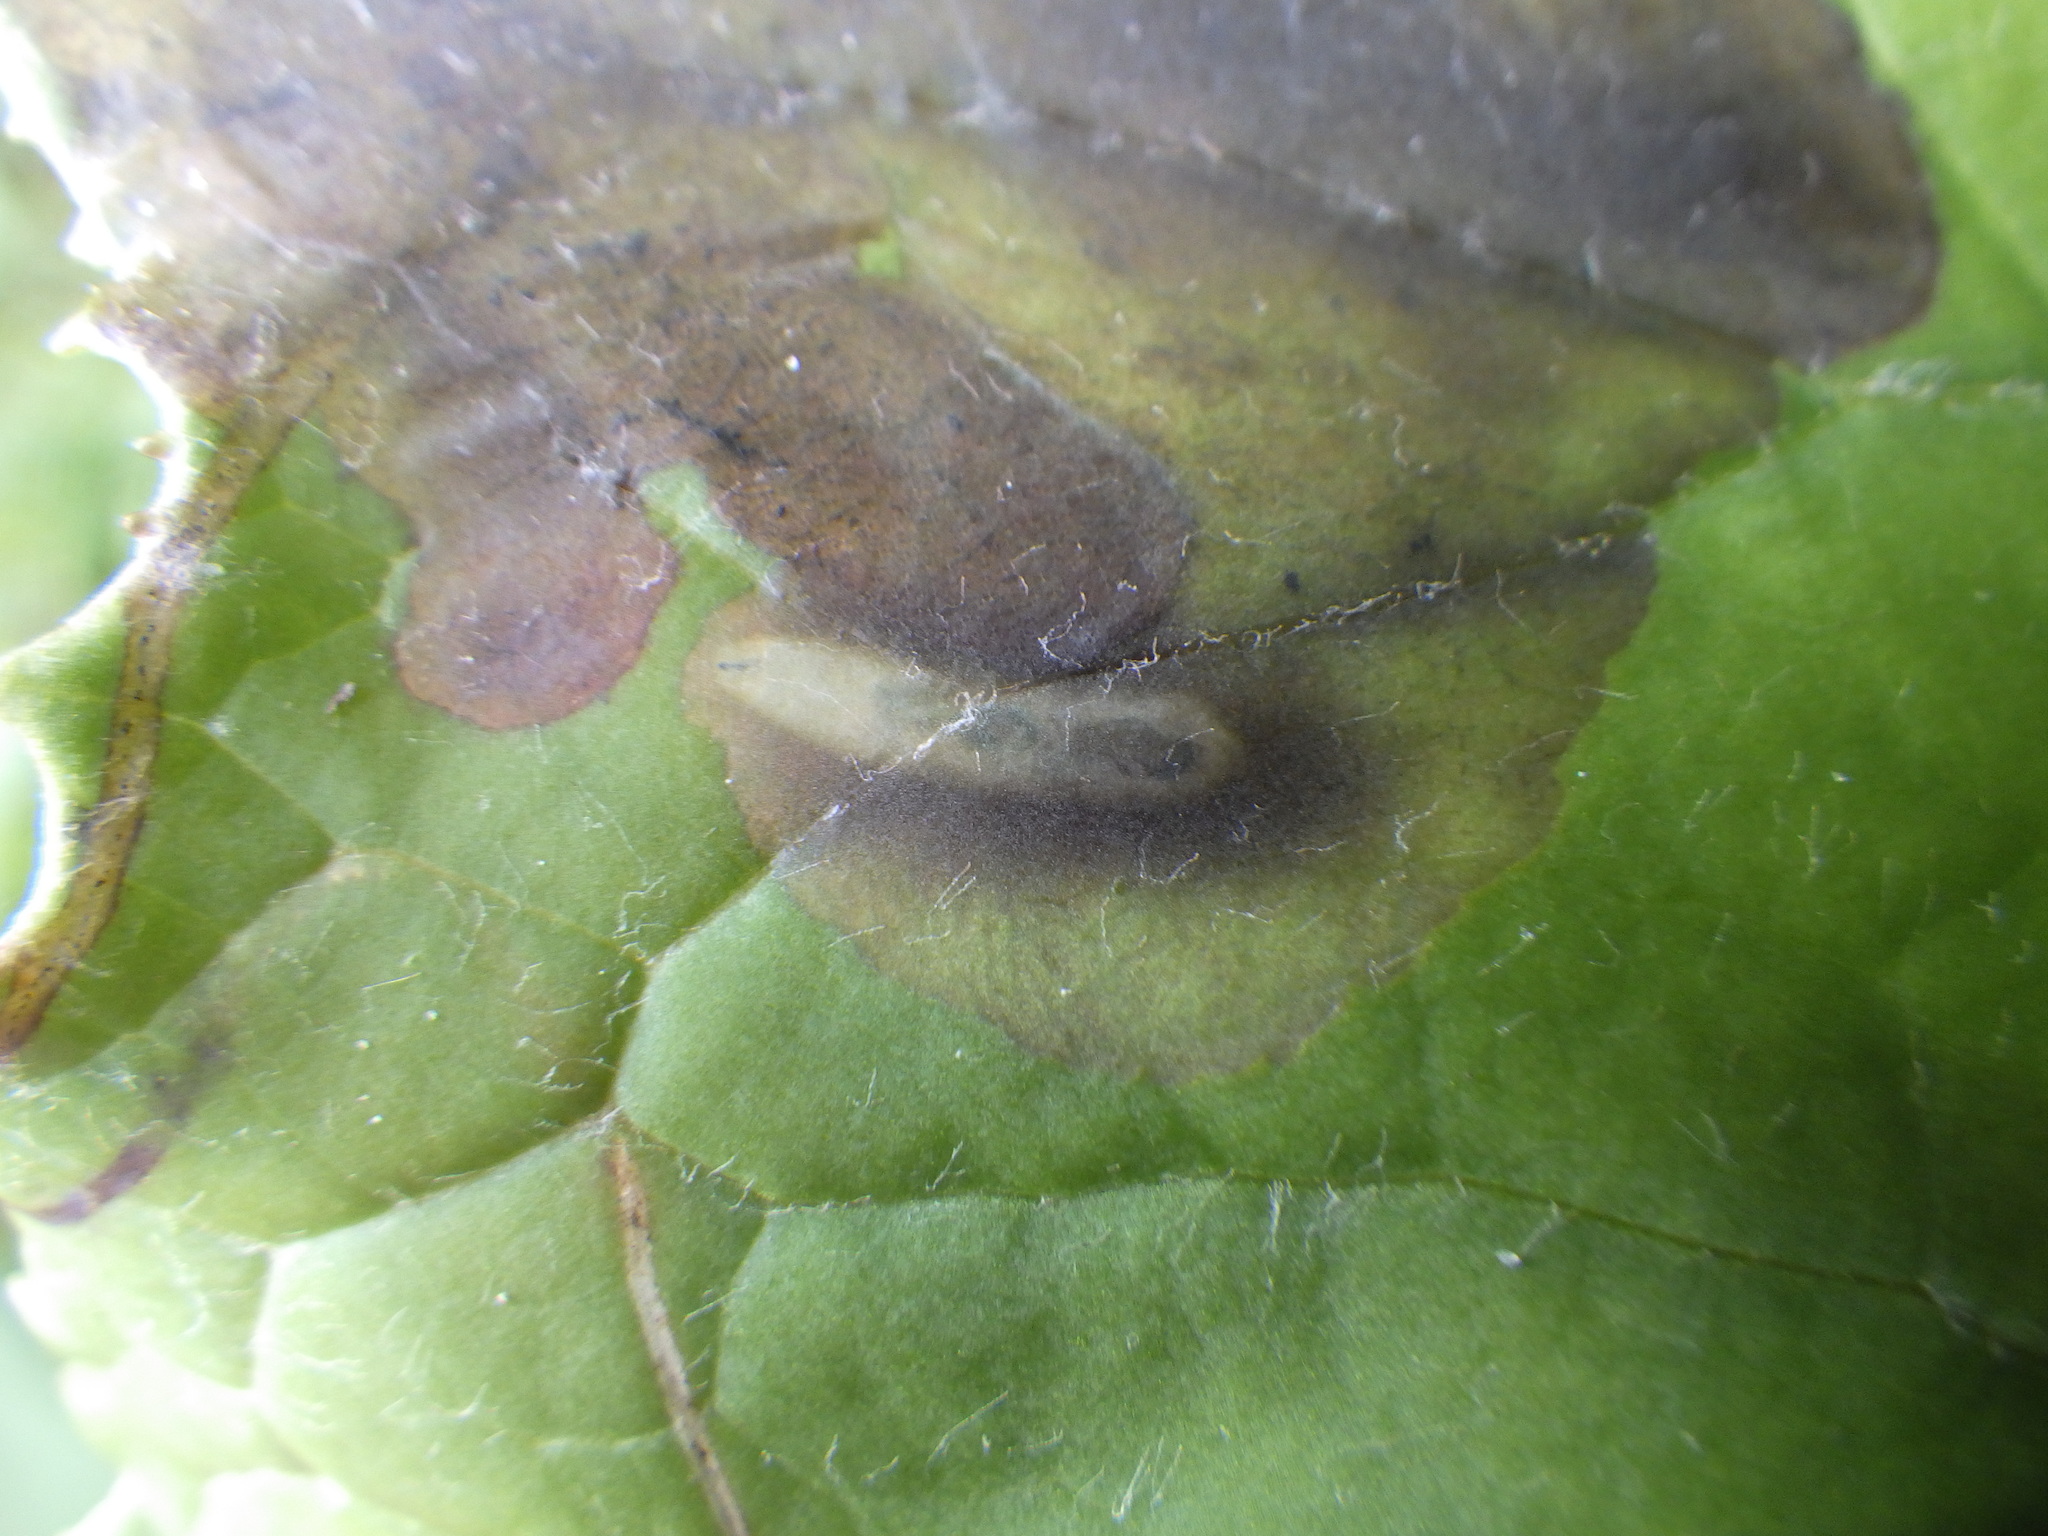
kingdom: Animalia
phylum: Arthropoda
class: Insecta
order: Diptera
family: Tephritidae
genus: Acidia
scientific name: Acidia cognata
